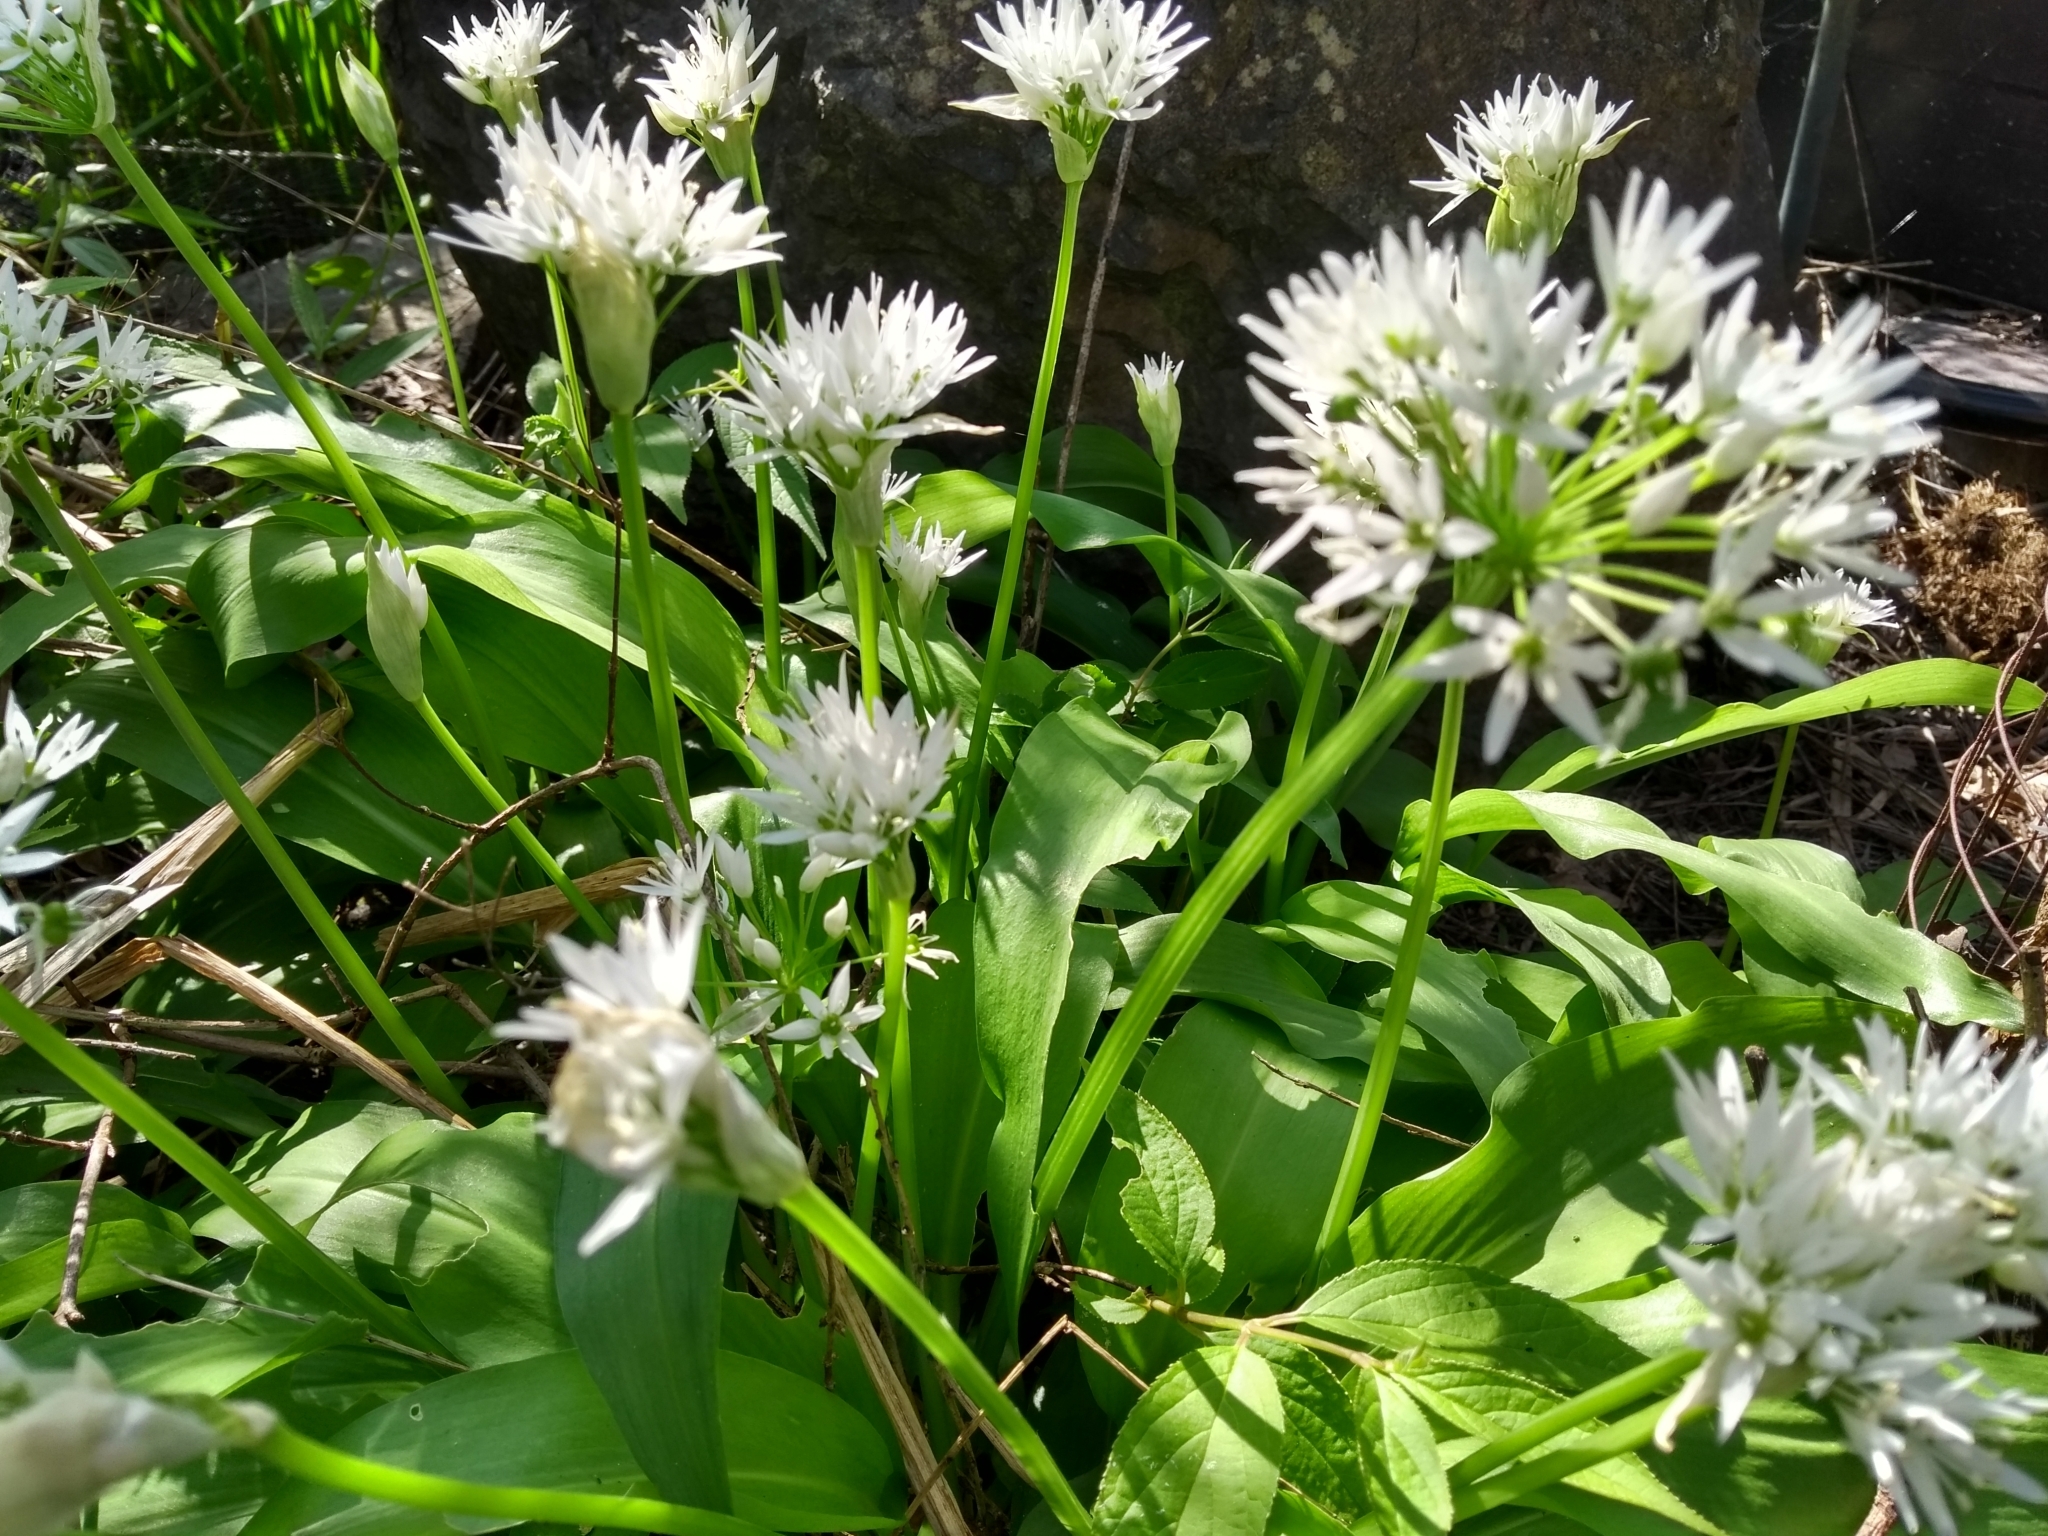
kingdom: Plantae
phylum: Tracheophyta
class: Liliopsida
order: Asparagales
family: Amaryllidaceae
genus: Allium
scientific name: Allium ursinum
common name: Ramsons
